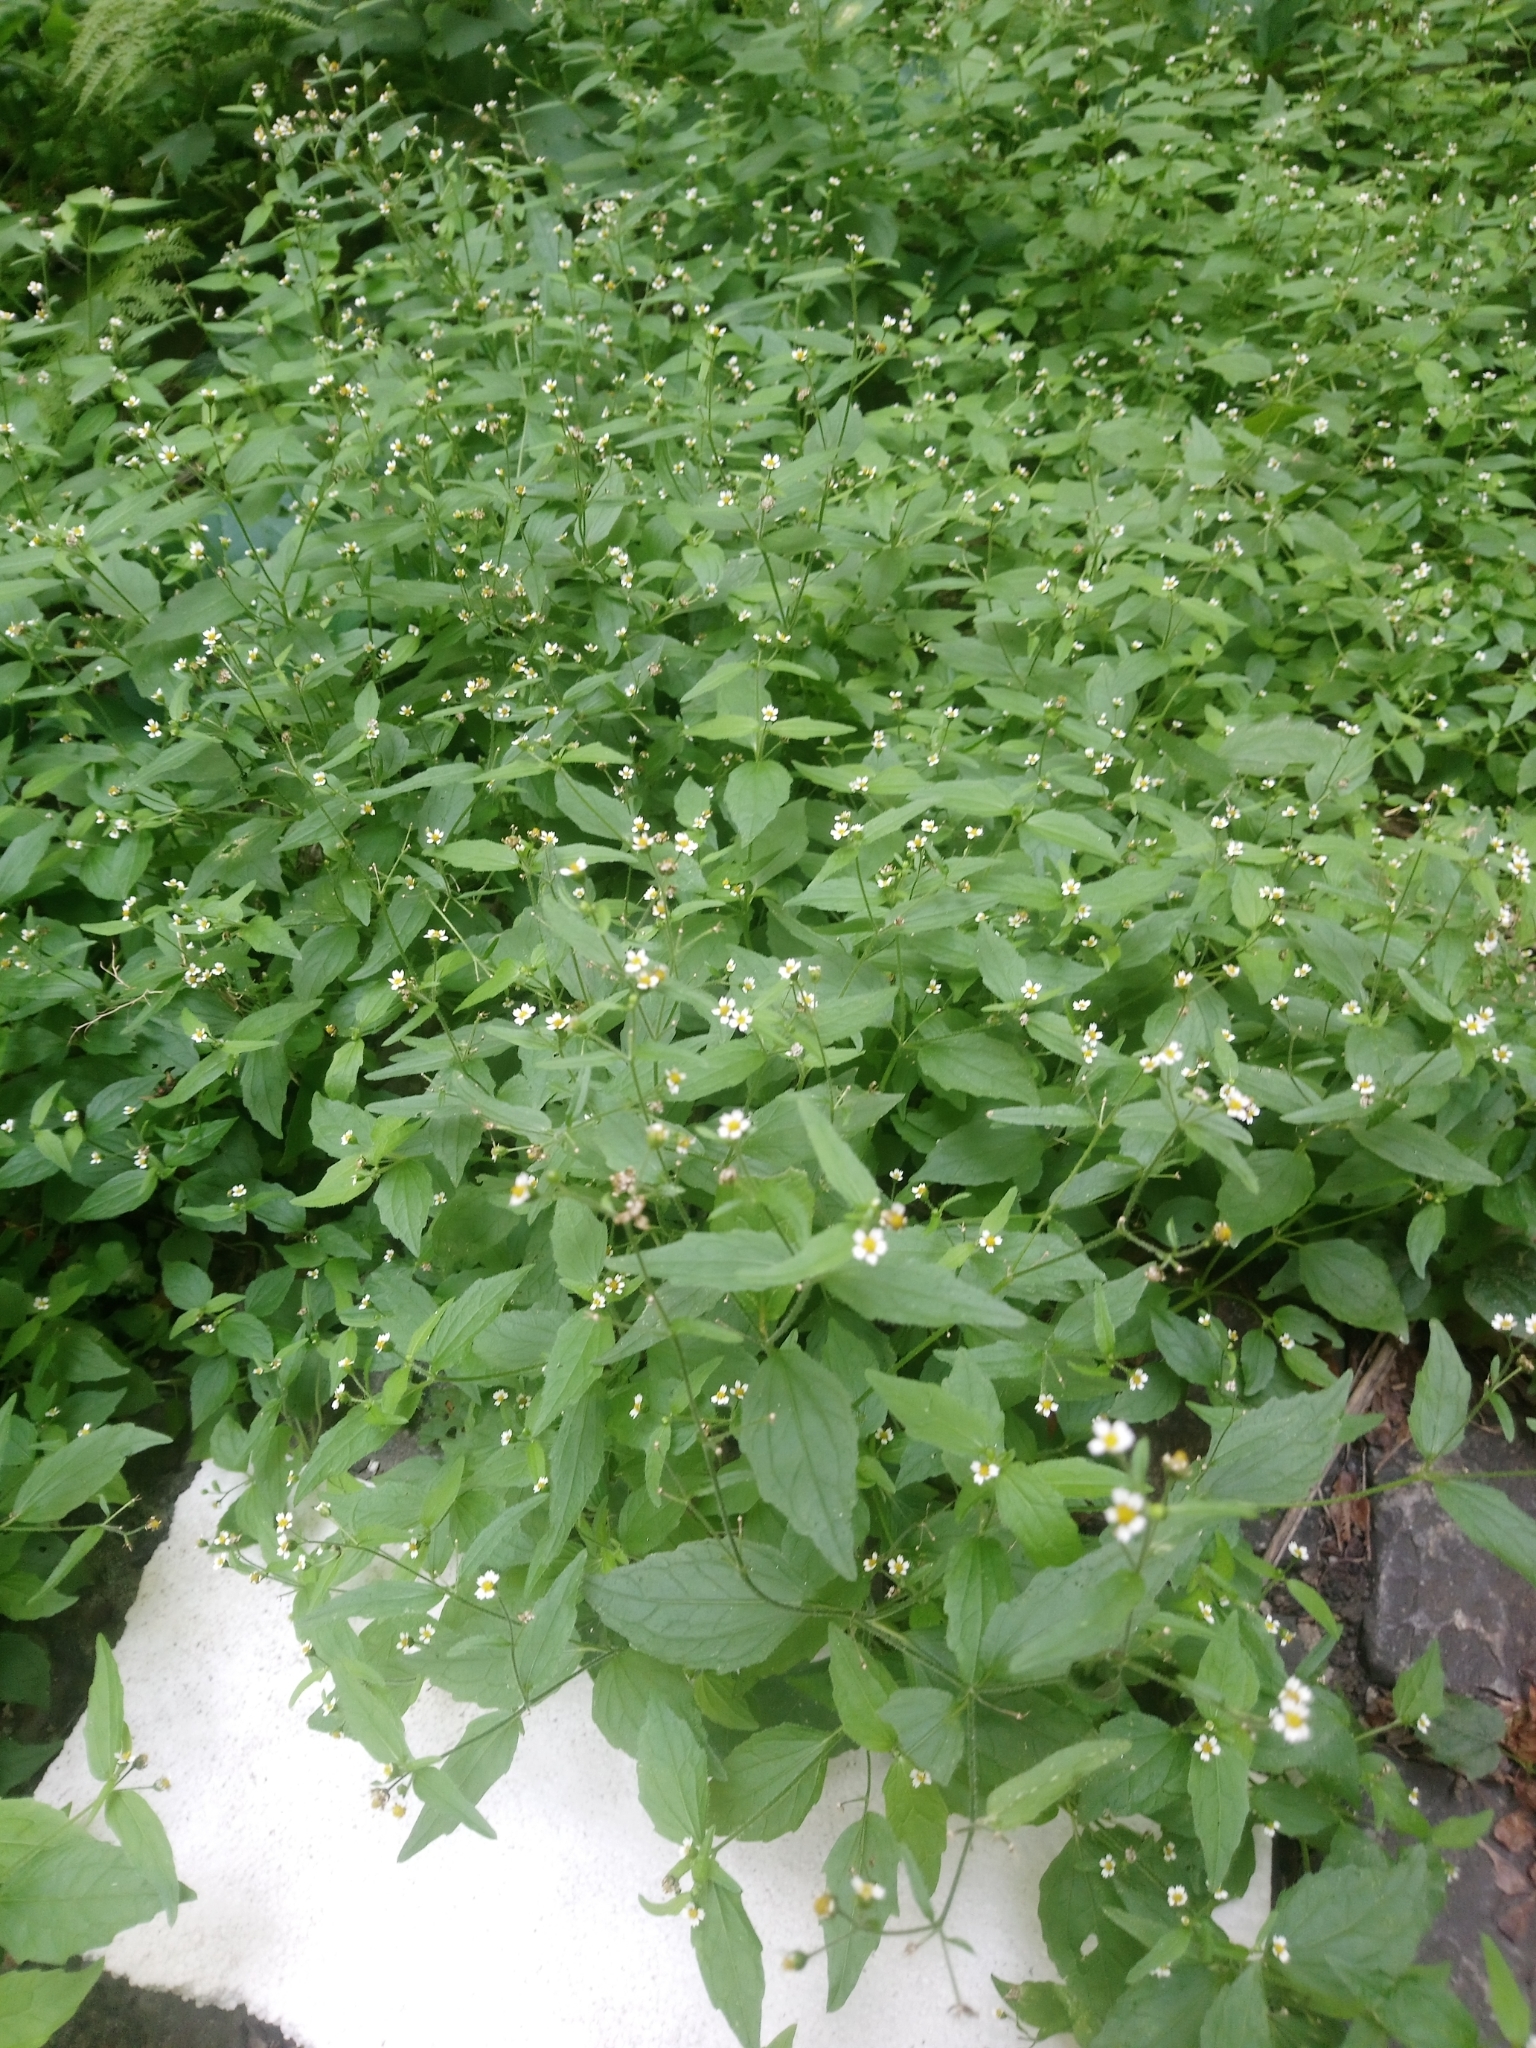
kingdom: Plantae
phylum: Tracheophyta
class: Magnoliopsida
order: Asterales
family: Asteraceae
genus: Galinsoga
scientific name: Galinsoga quadriradiata
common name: Shaggy soldier
